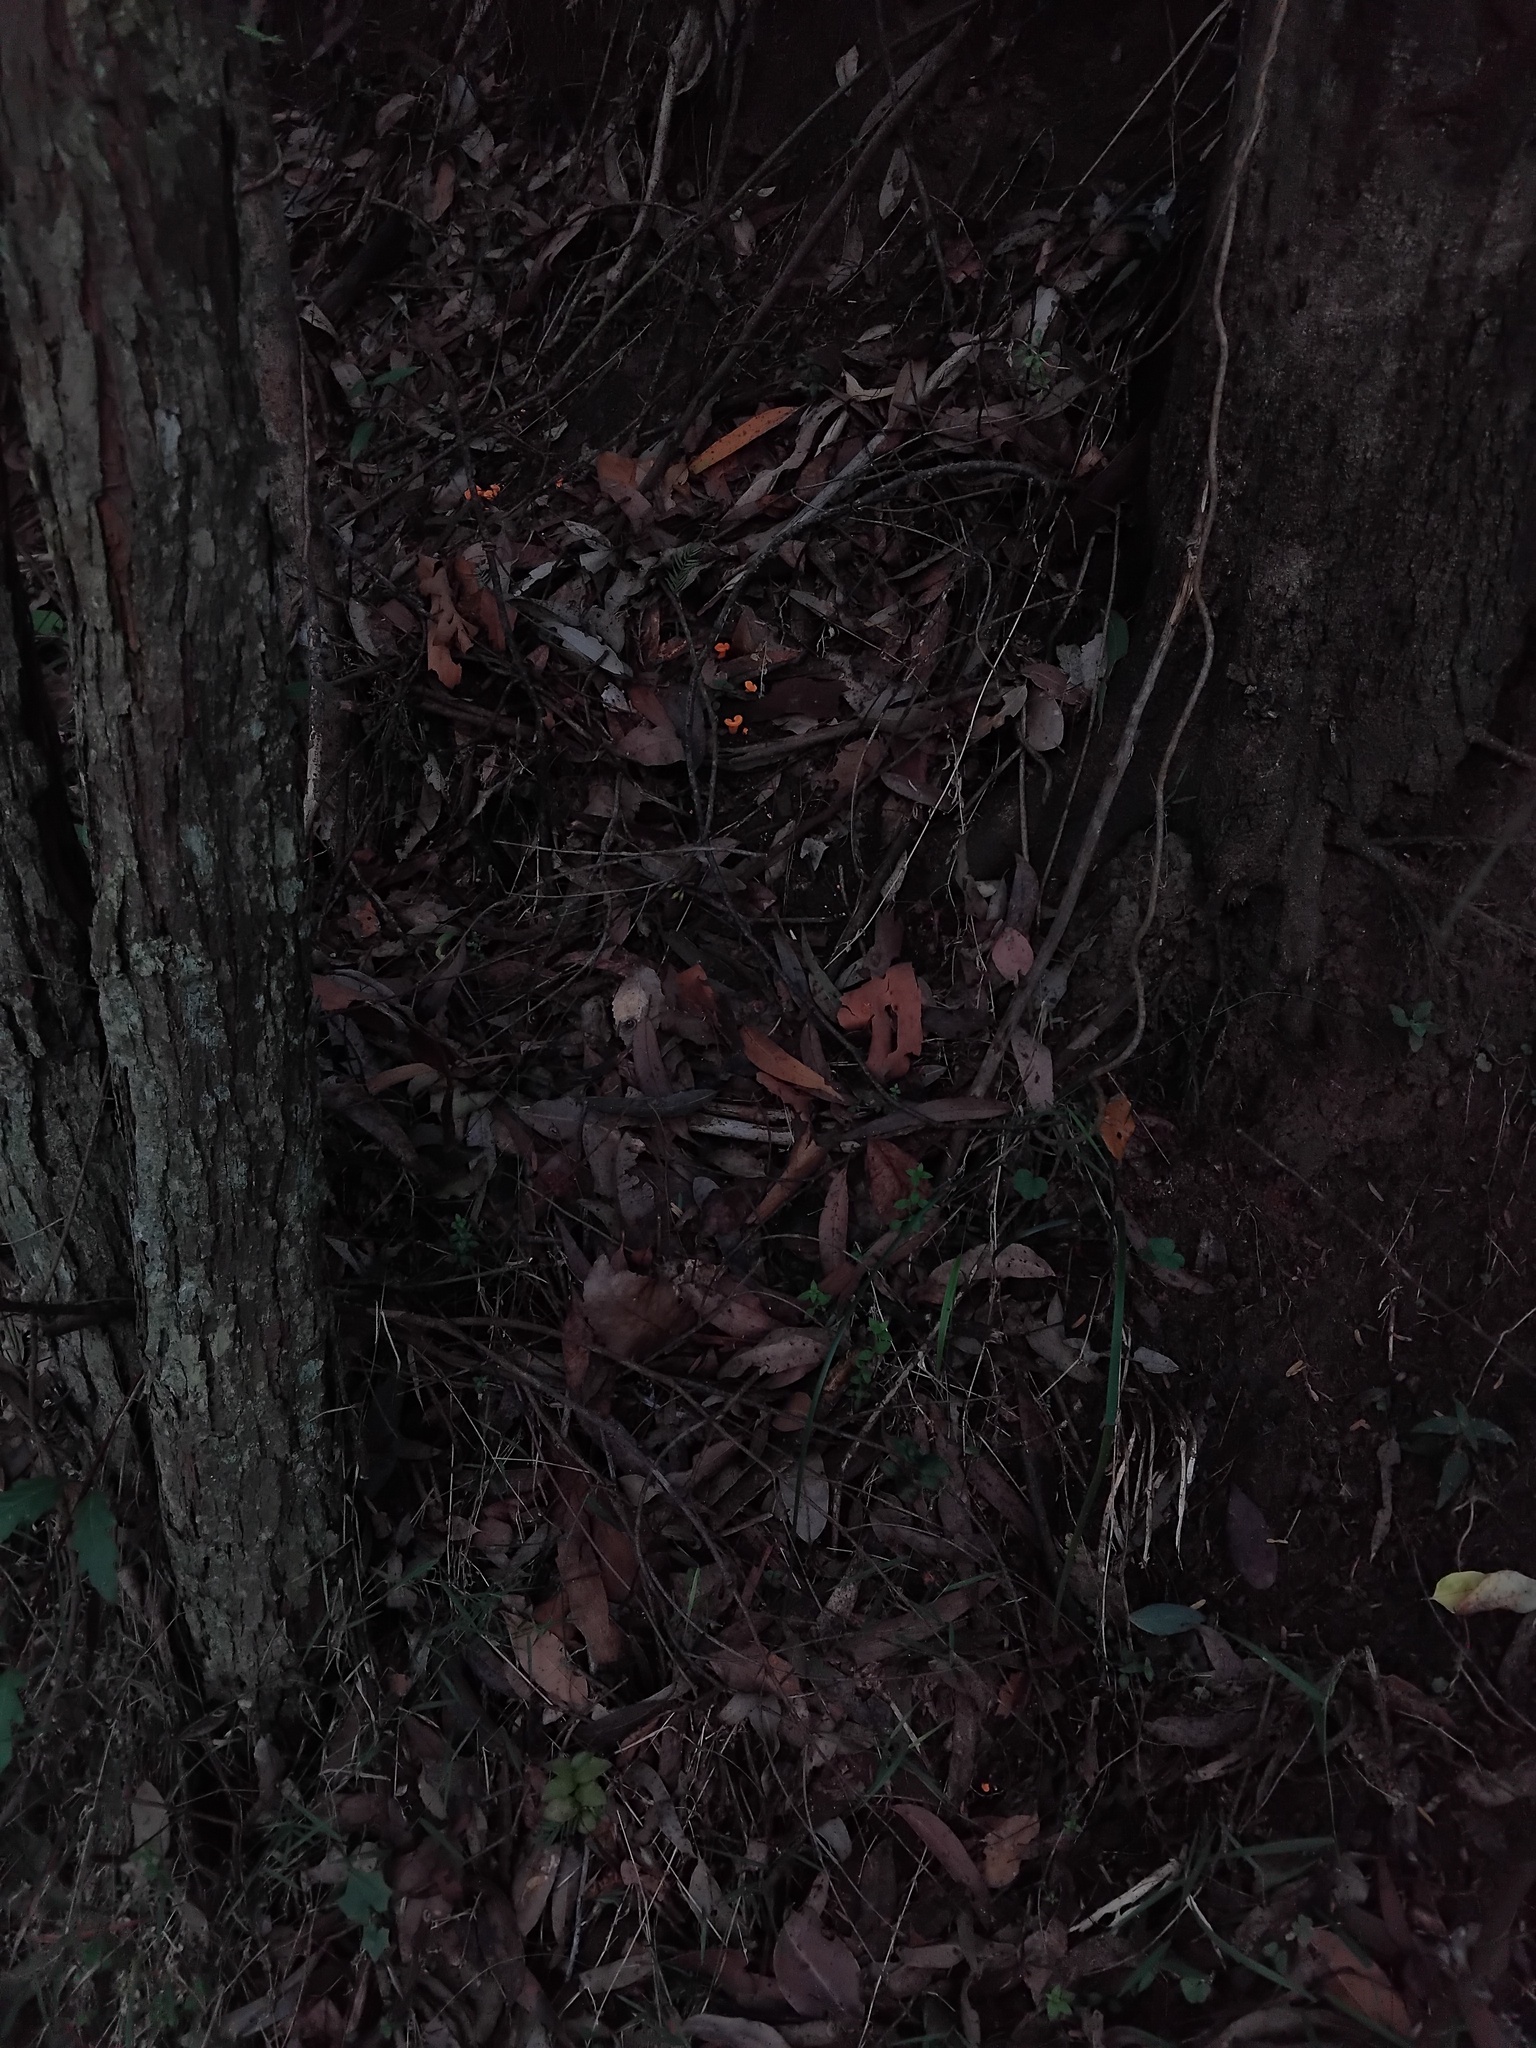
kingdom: Fungi
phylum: Basidiomycota
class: Agaricomycetes
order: Cantharellales
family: Hydnaceae
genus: Cantharellus
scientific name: Cantharellus
